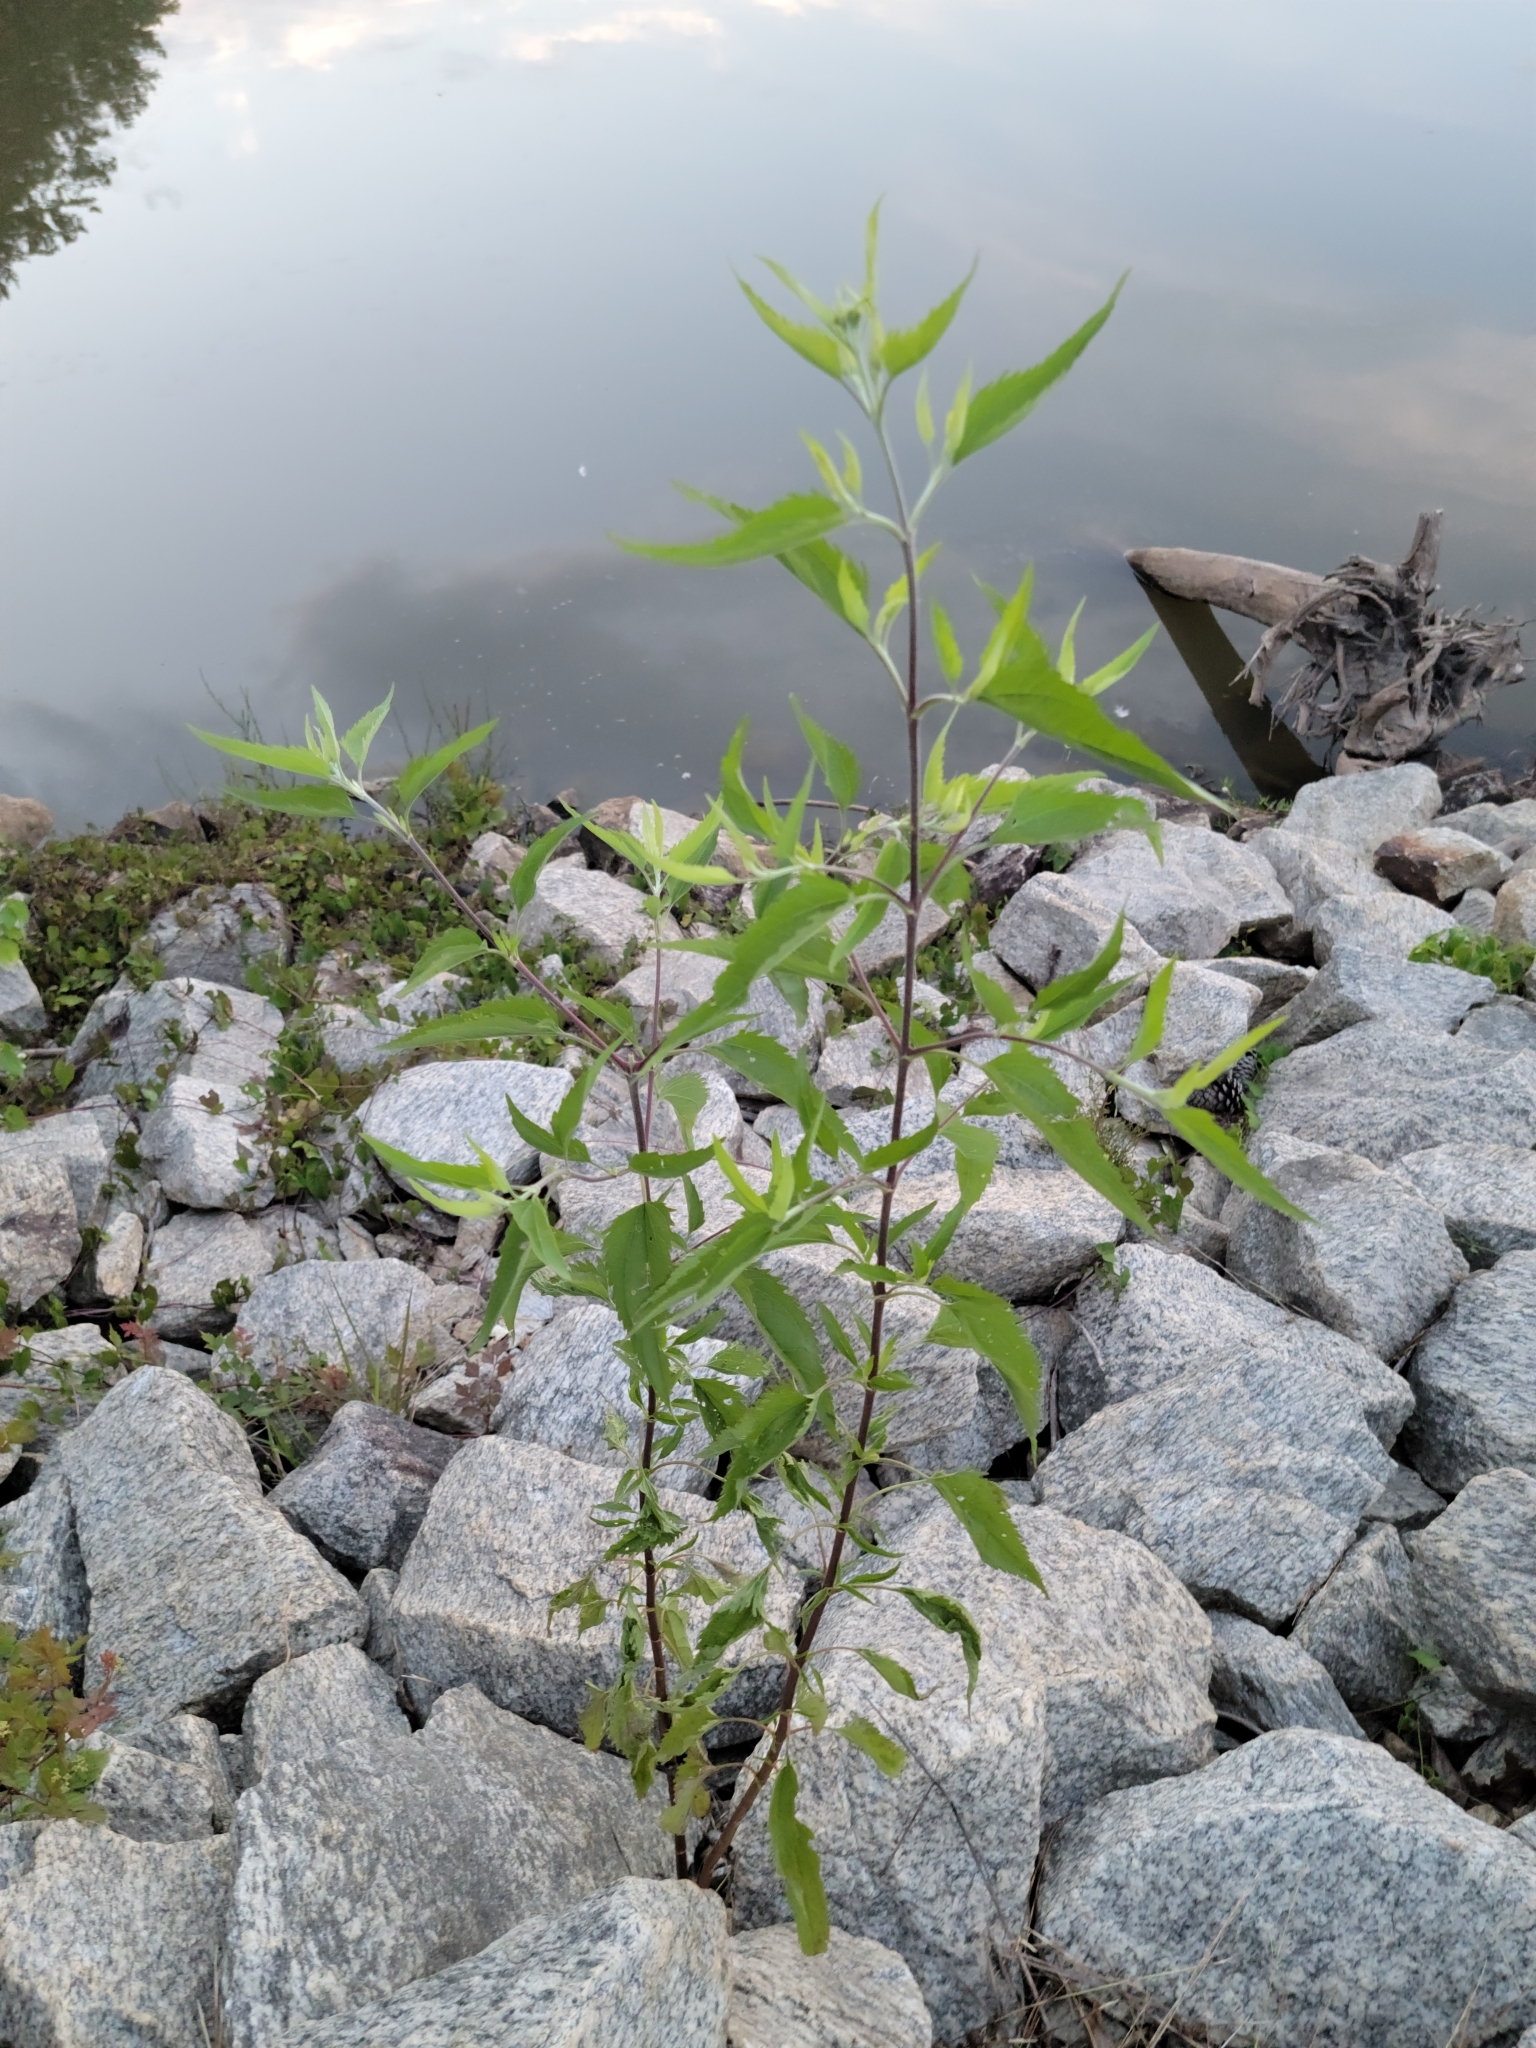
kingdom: Plantae
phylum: Tracheophyta
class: Magnoliopsida
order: Asterales
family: Asteraceae
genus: Eupatorium
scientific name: Eupatorium serotinum
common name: Late boneset
